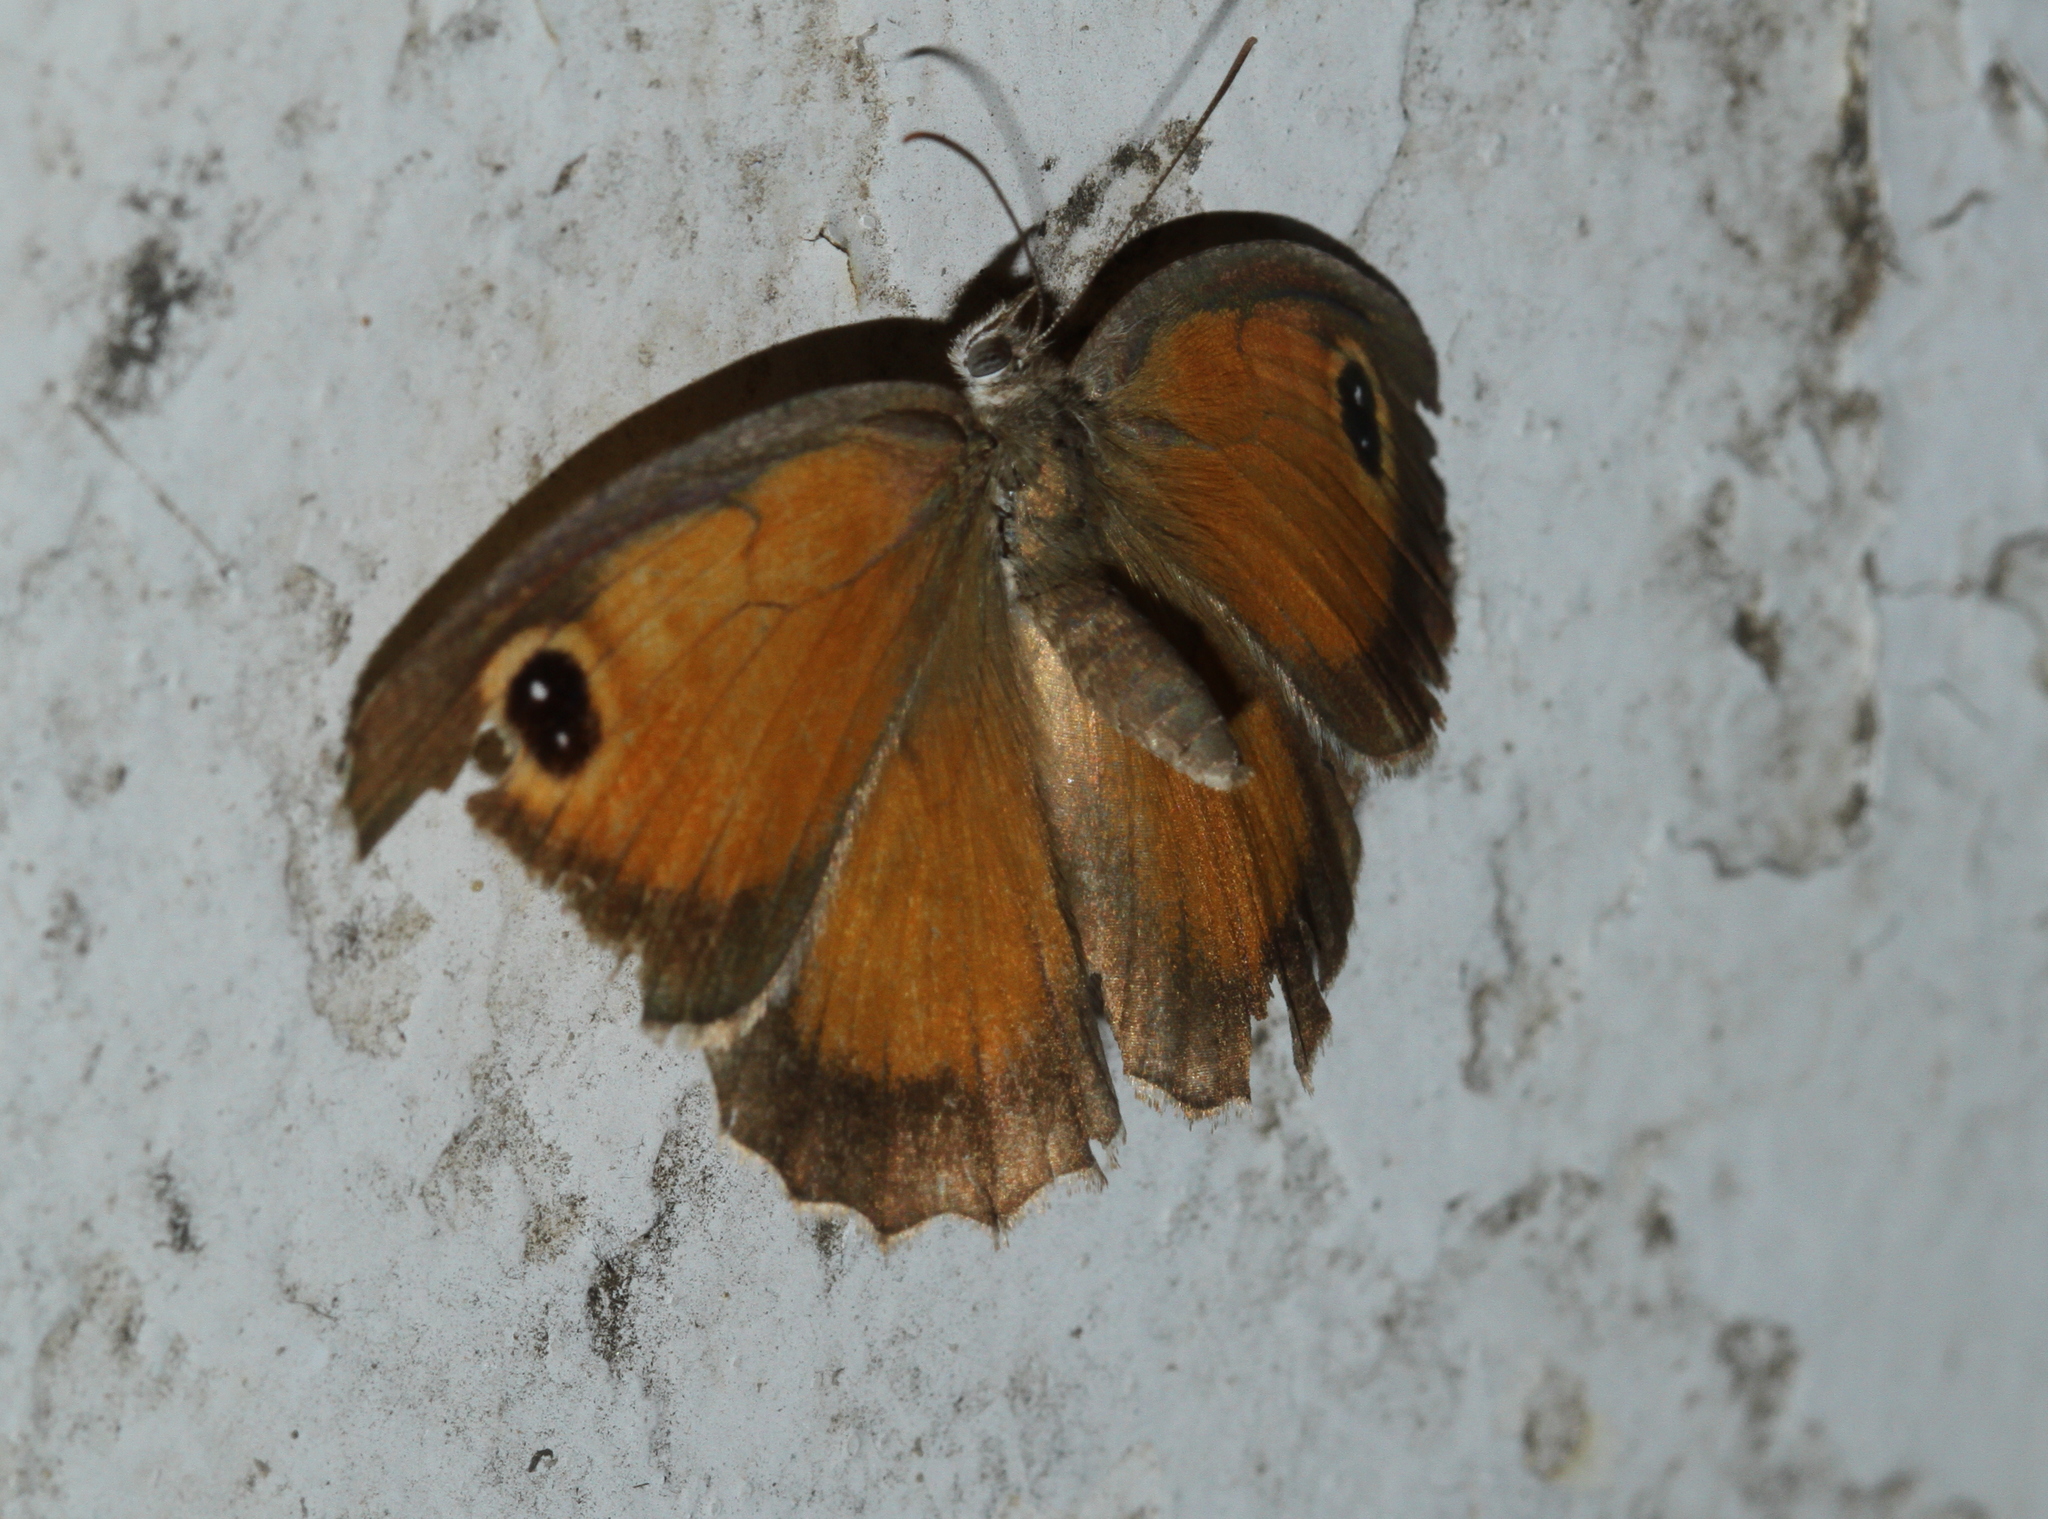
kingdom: Animalia
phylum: Arthropoda
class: Insecta
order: Lepidoptera
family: Nymphalidae
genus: Pyronia
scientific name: Pyronia cecilia
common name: Southern gatekeeper
